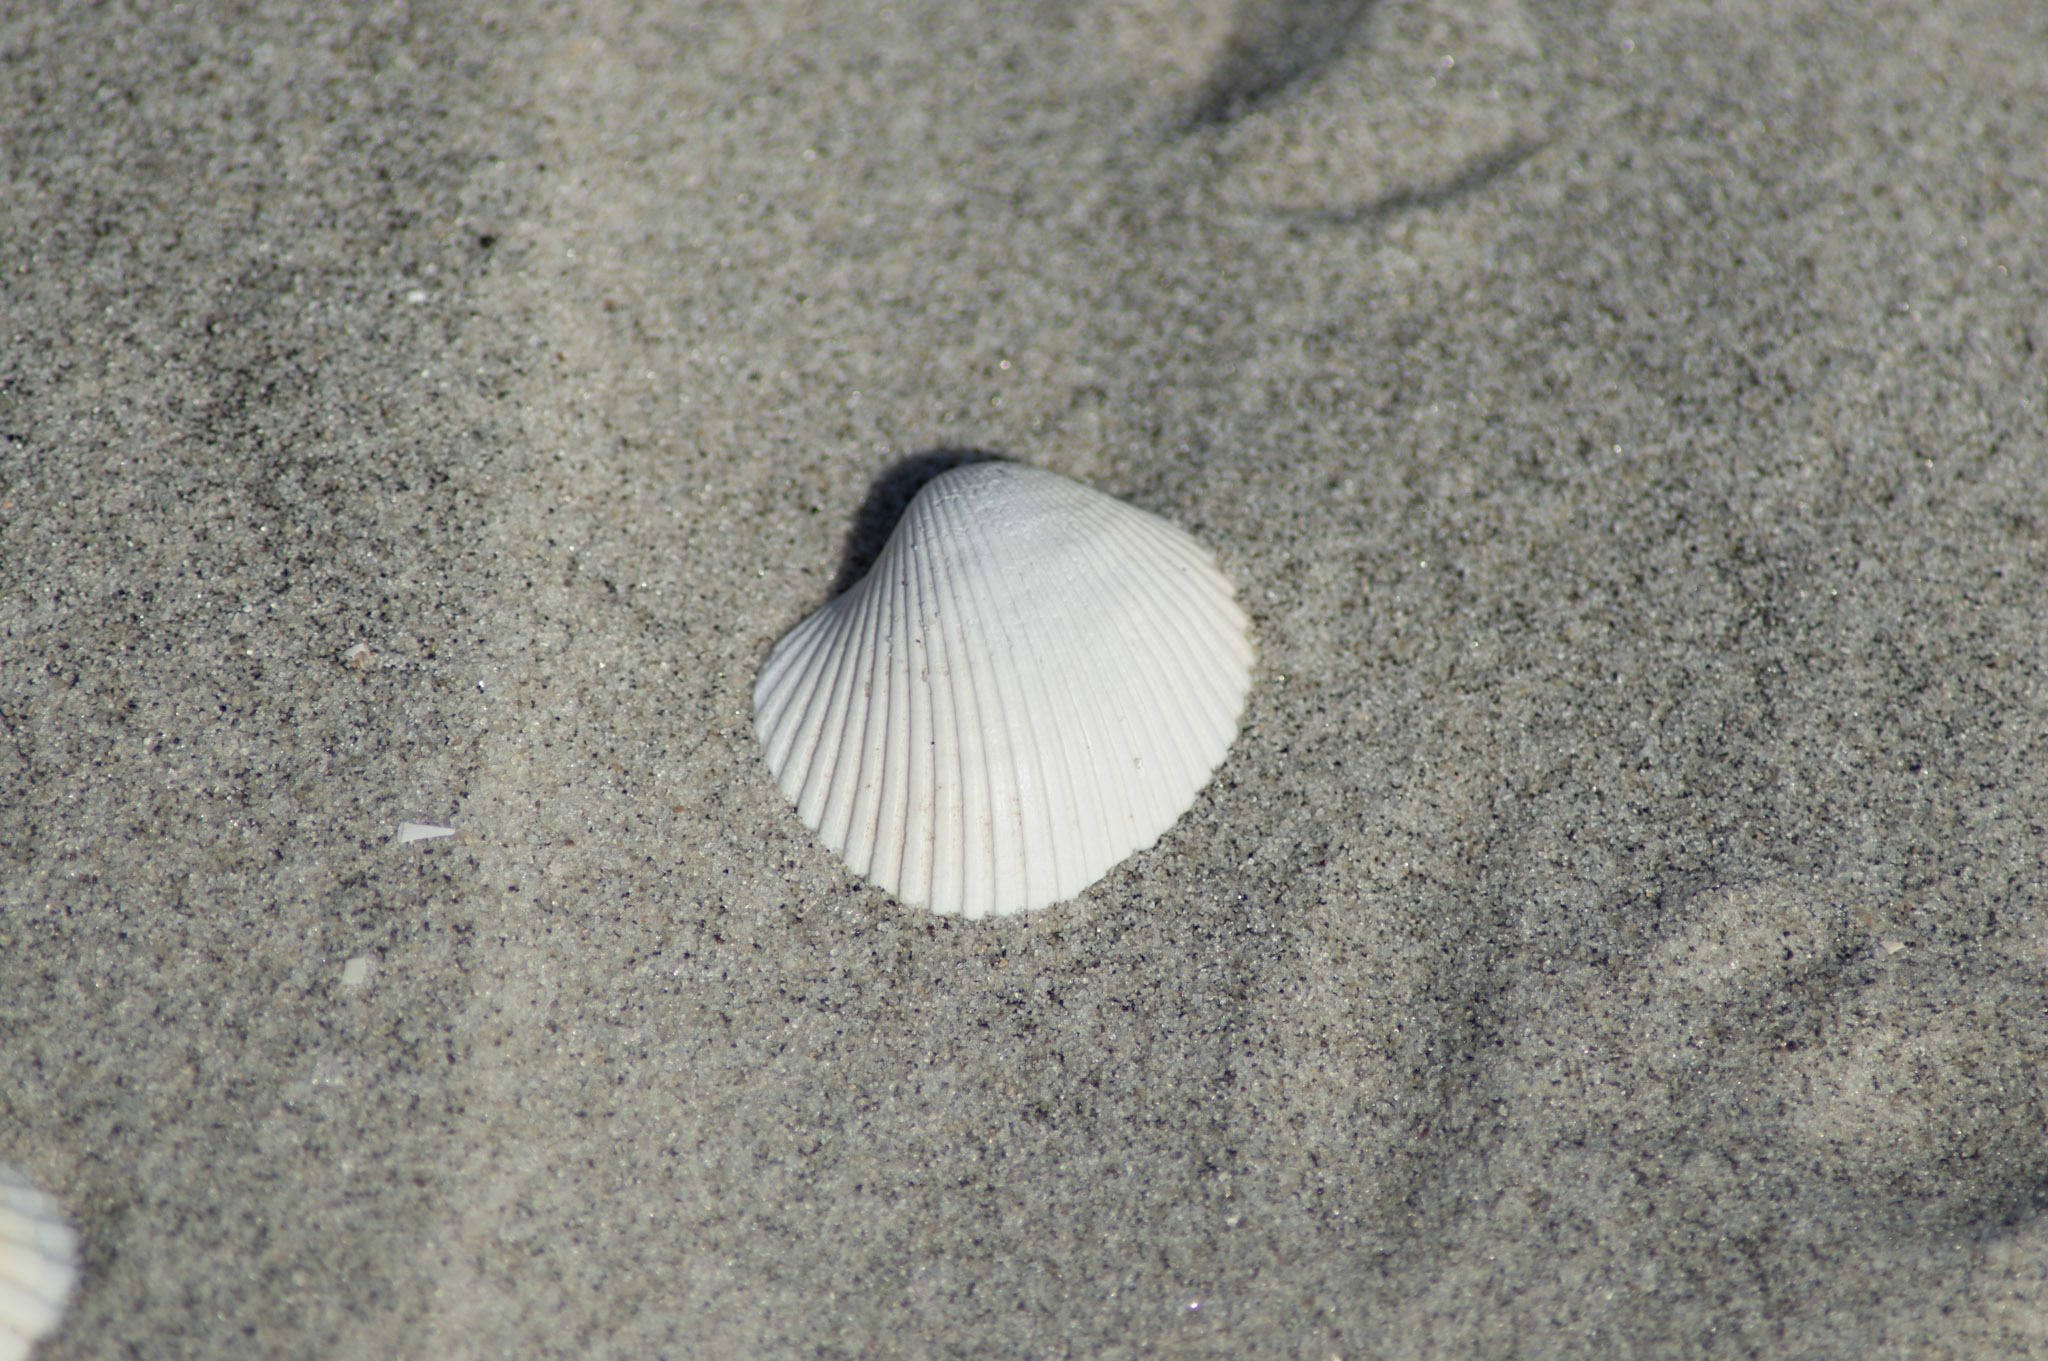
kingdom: Animalia
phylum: Mollusca
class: Bivalvia
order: Arcida
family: Arcidae
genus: Lunarca
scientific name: Lunarca ovalis
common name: Blood ark
